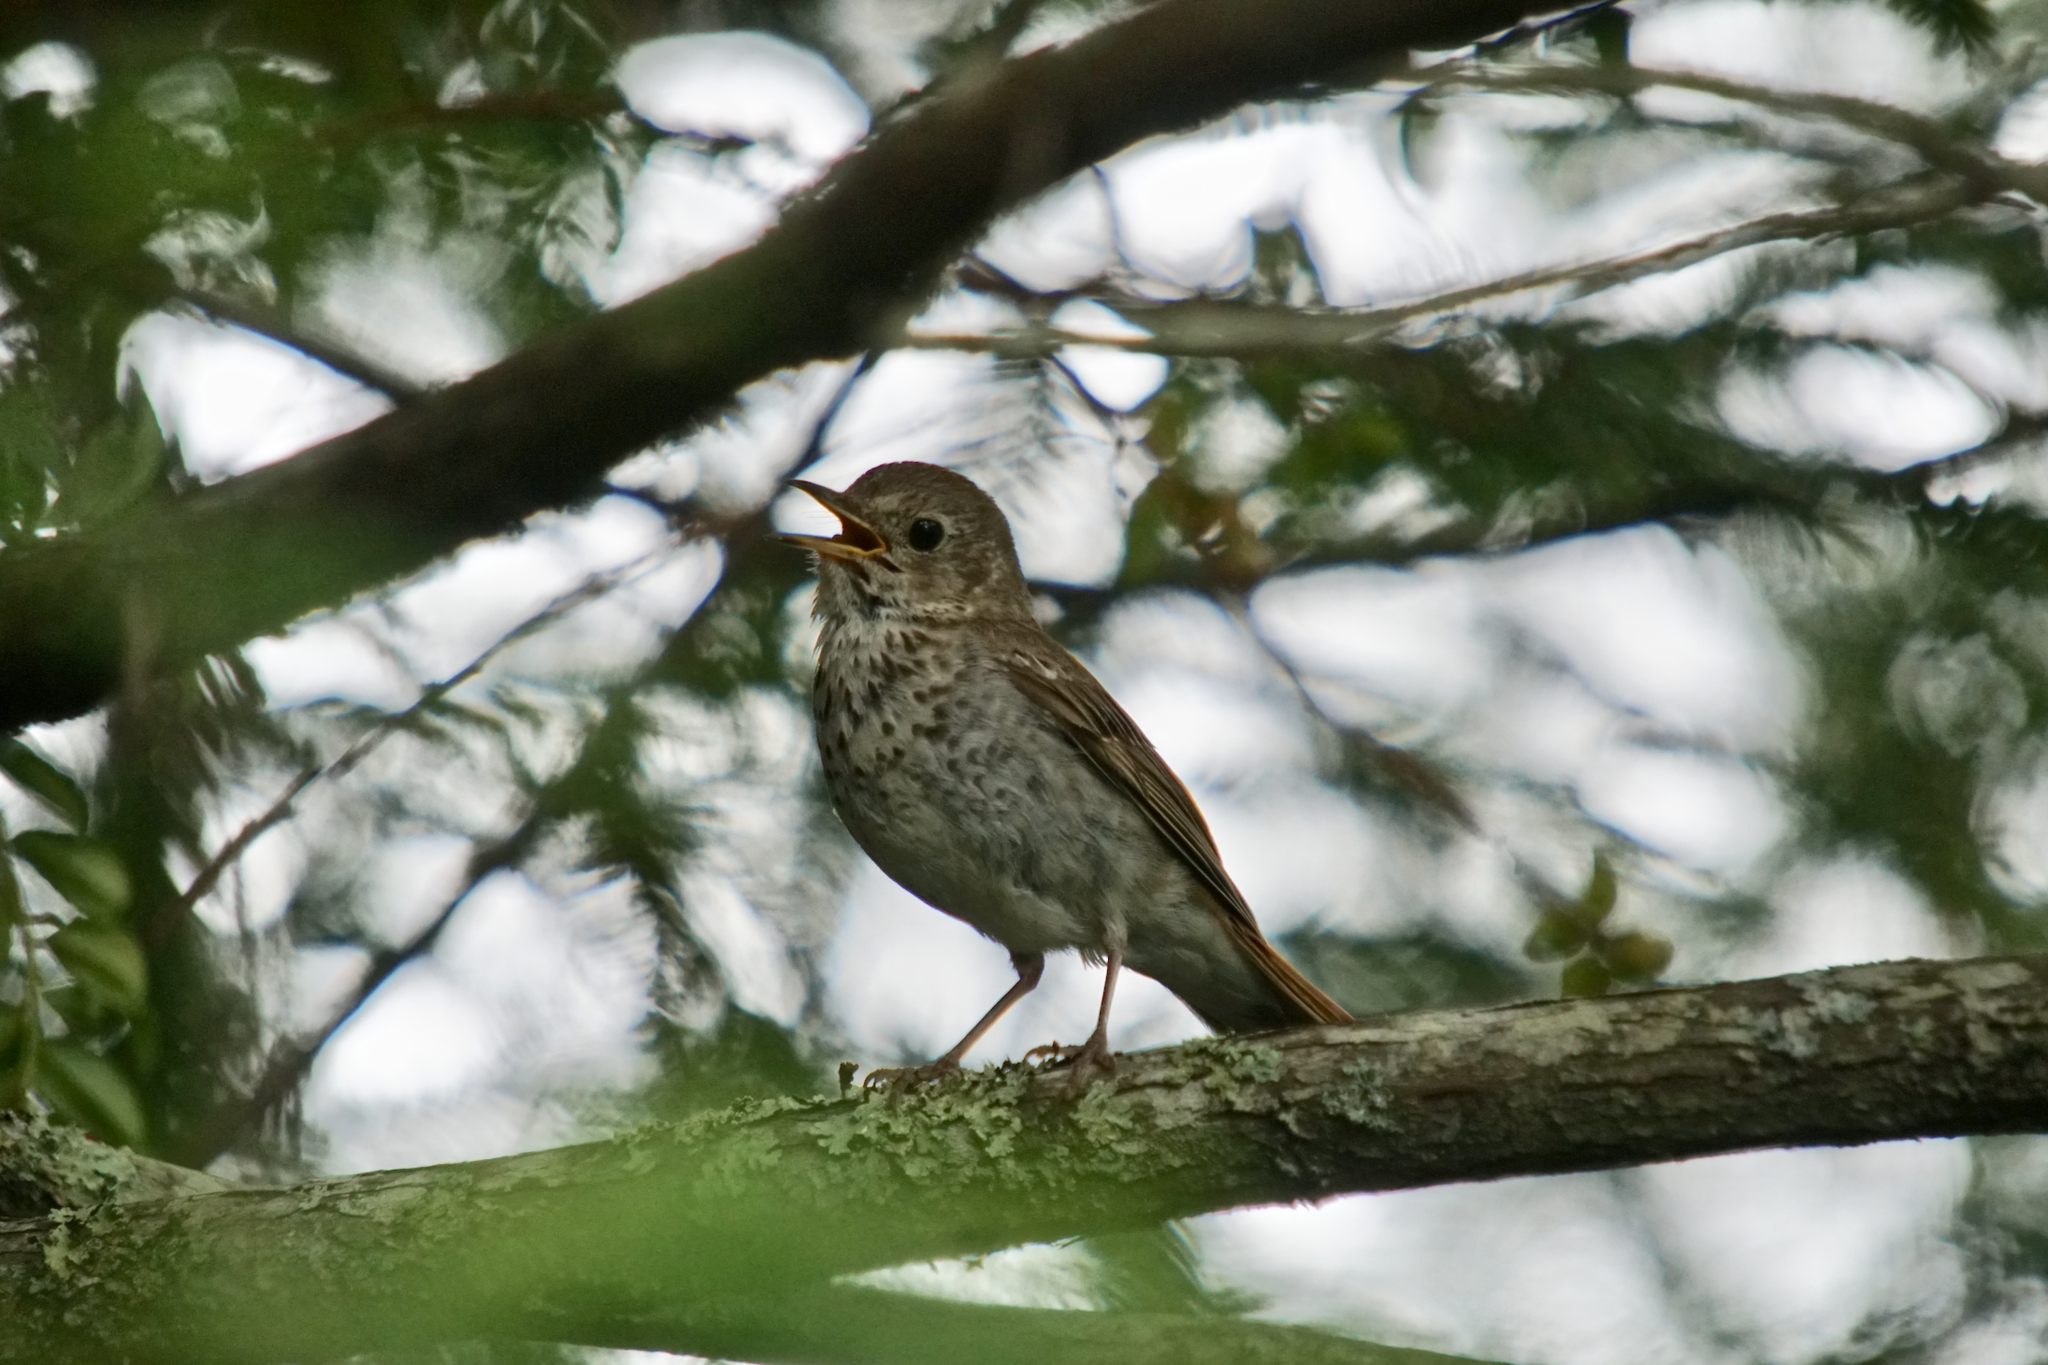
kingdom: Animalia
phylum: Chordata
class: Aves
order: Passeriformes
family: Turdidae
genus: Catharus
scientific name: Catharus guttatus
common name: Hermit thrush
